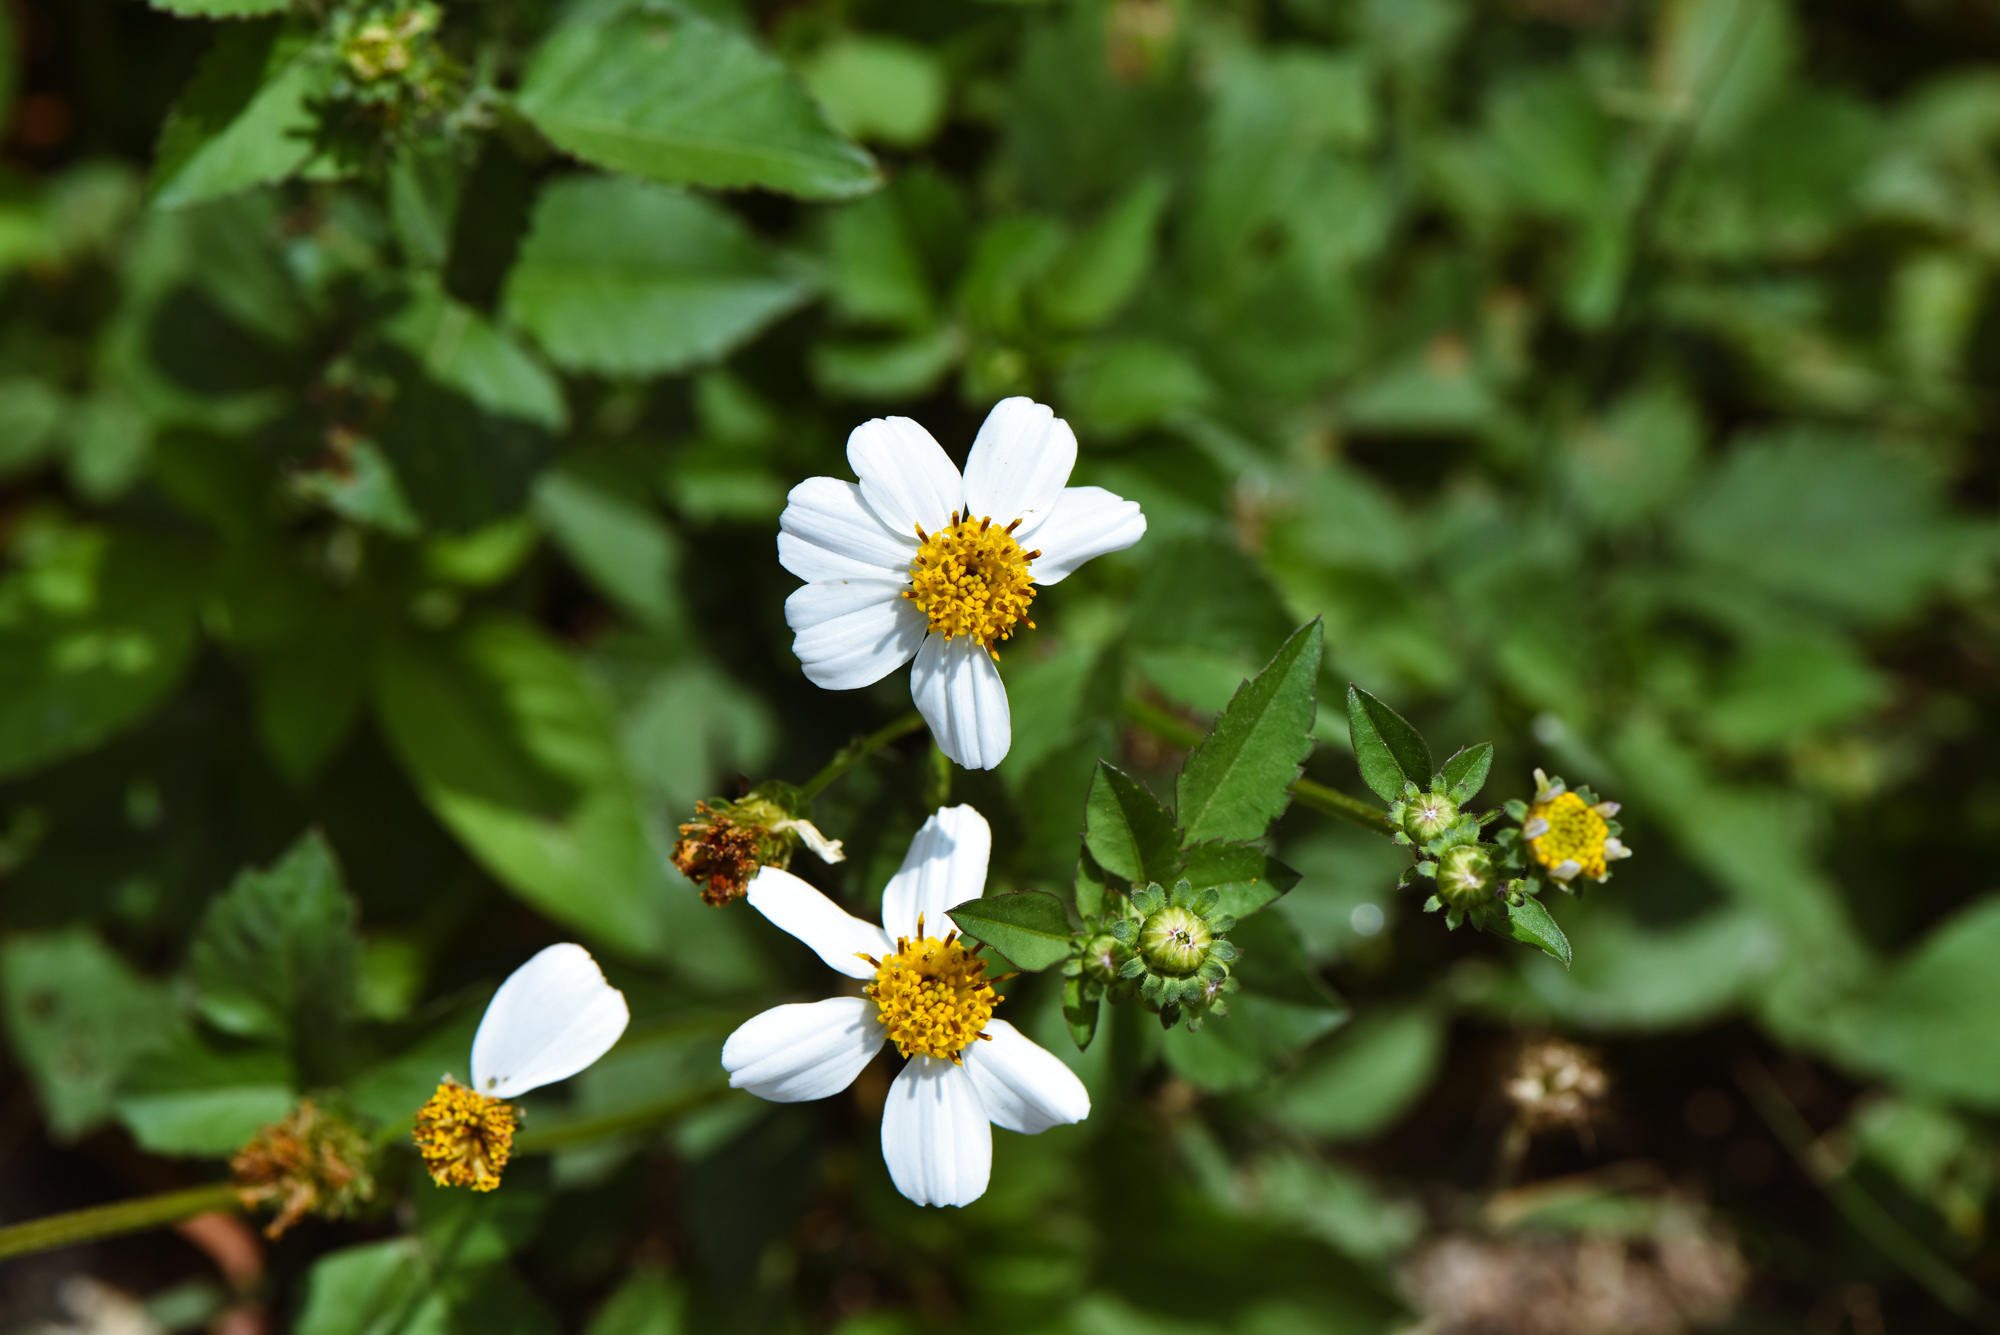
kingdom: Plantae
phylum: Tracheophyta
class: Magnoliopsida
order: Asterales
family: Asteraceae
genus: Bidens
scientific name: Bidens alba
